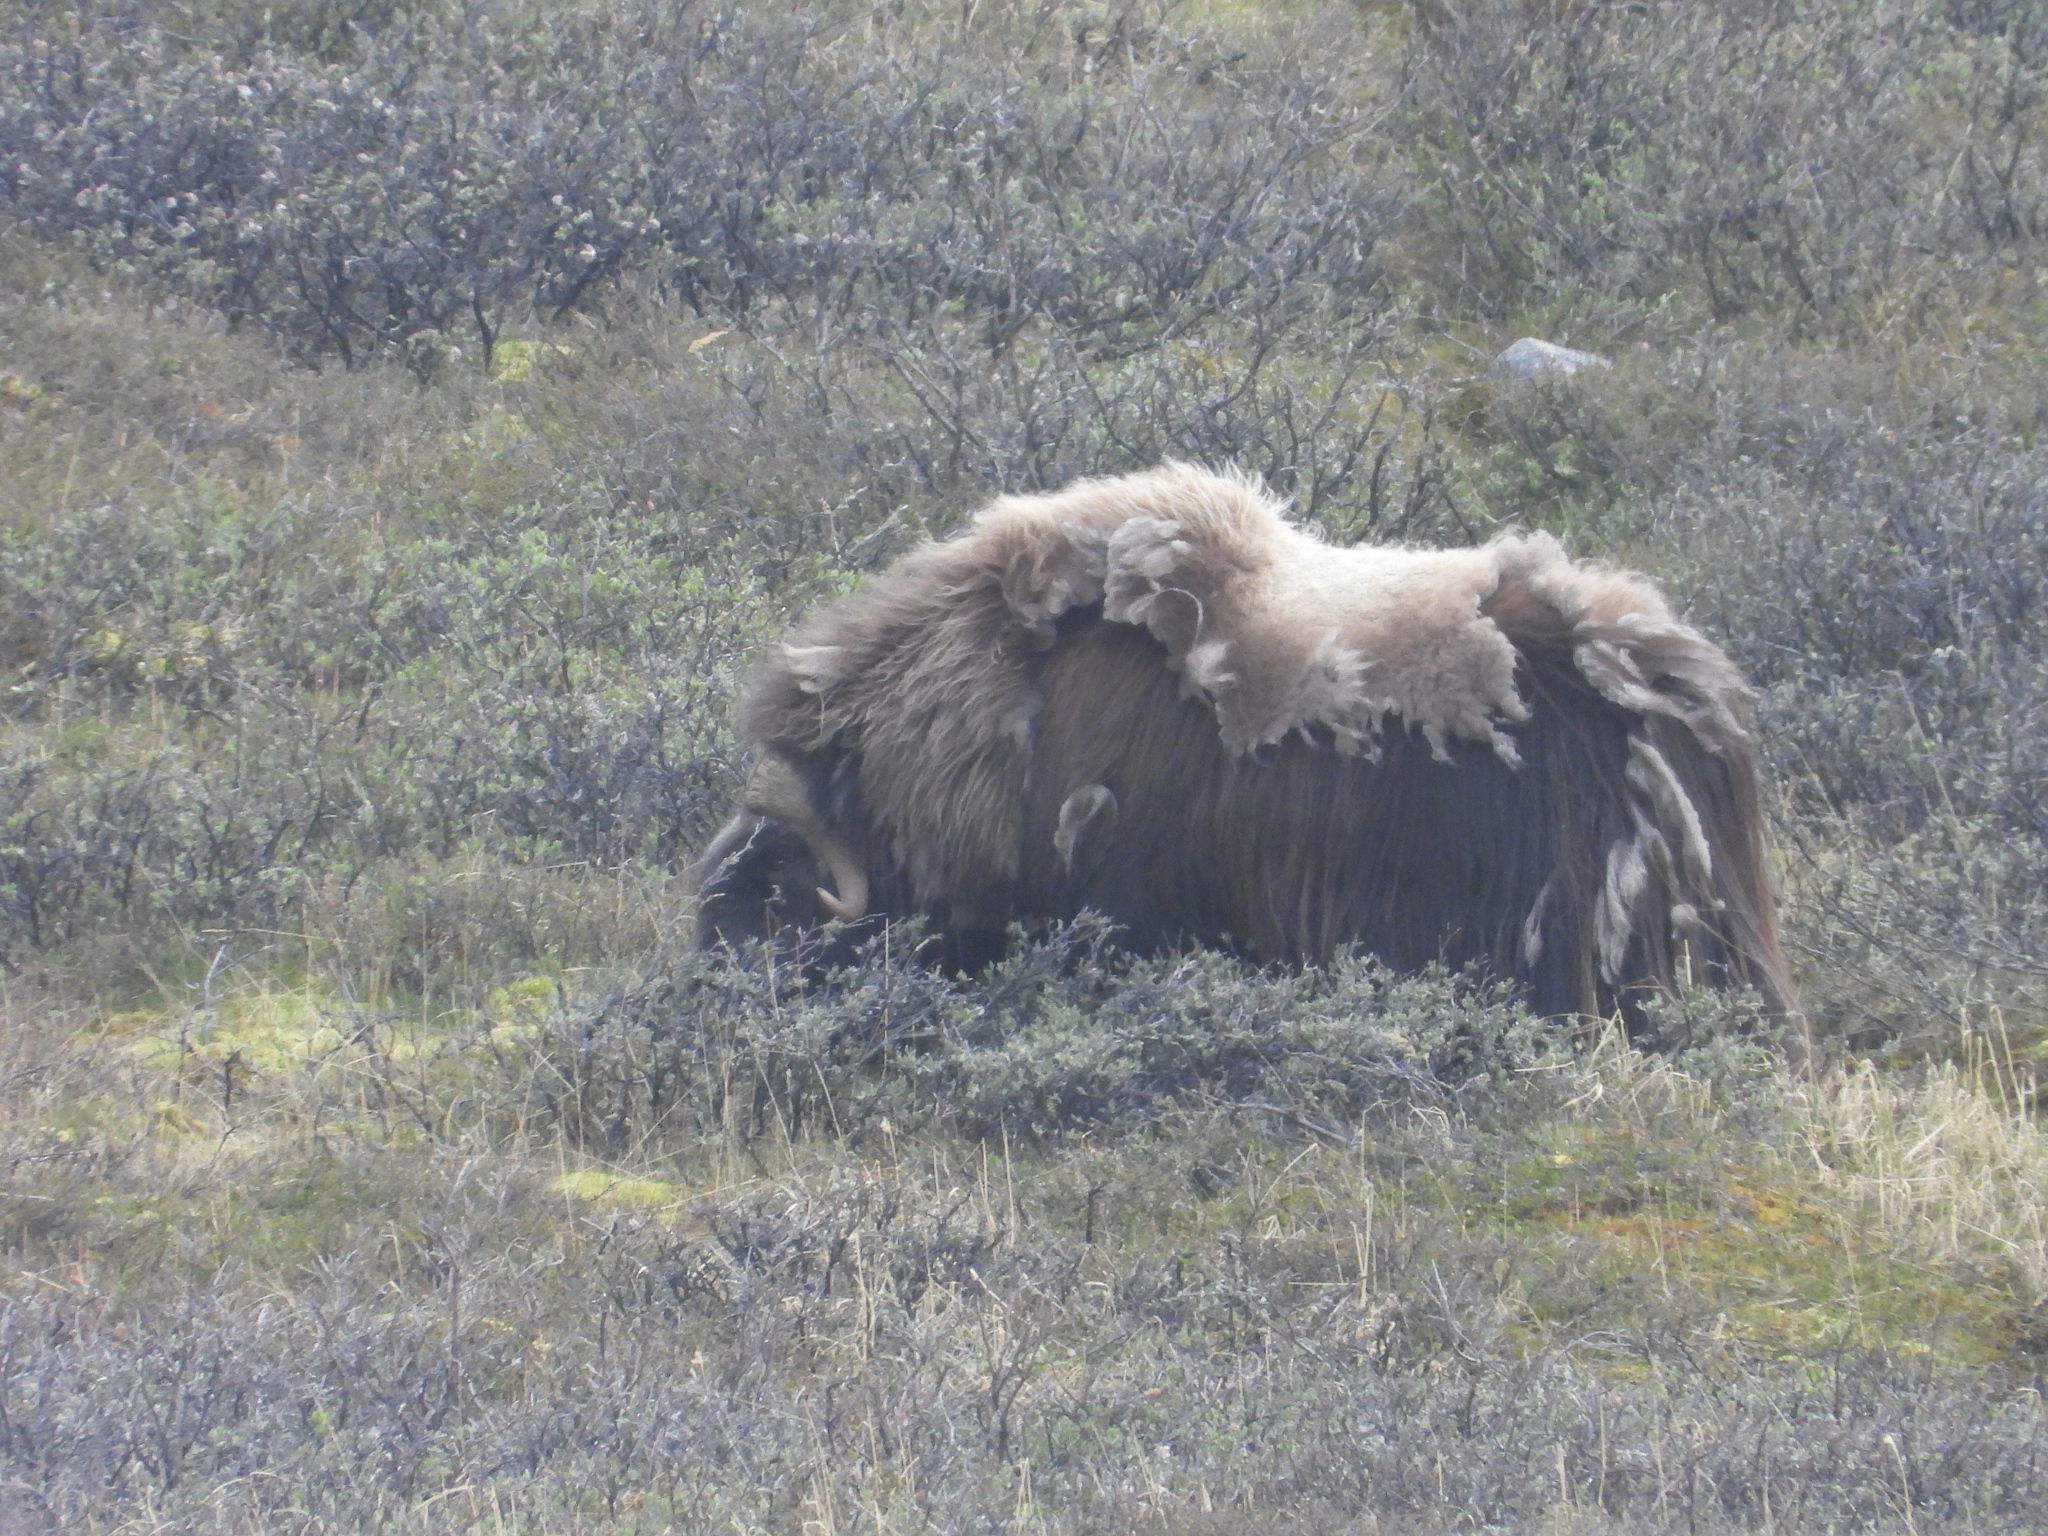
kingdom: Animalia
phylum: Chordata
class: Mammalia
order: Artiodactyla
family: Bovidae
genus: Ovibos
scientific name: Ovibos moschatus
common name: Muskox
